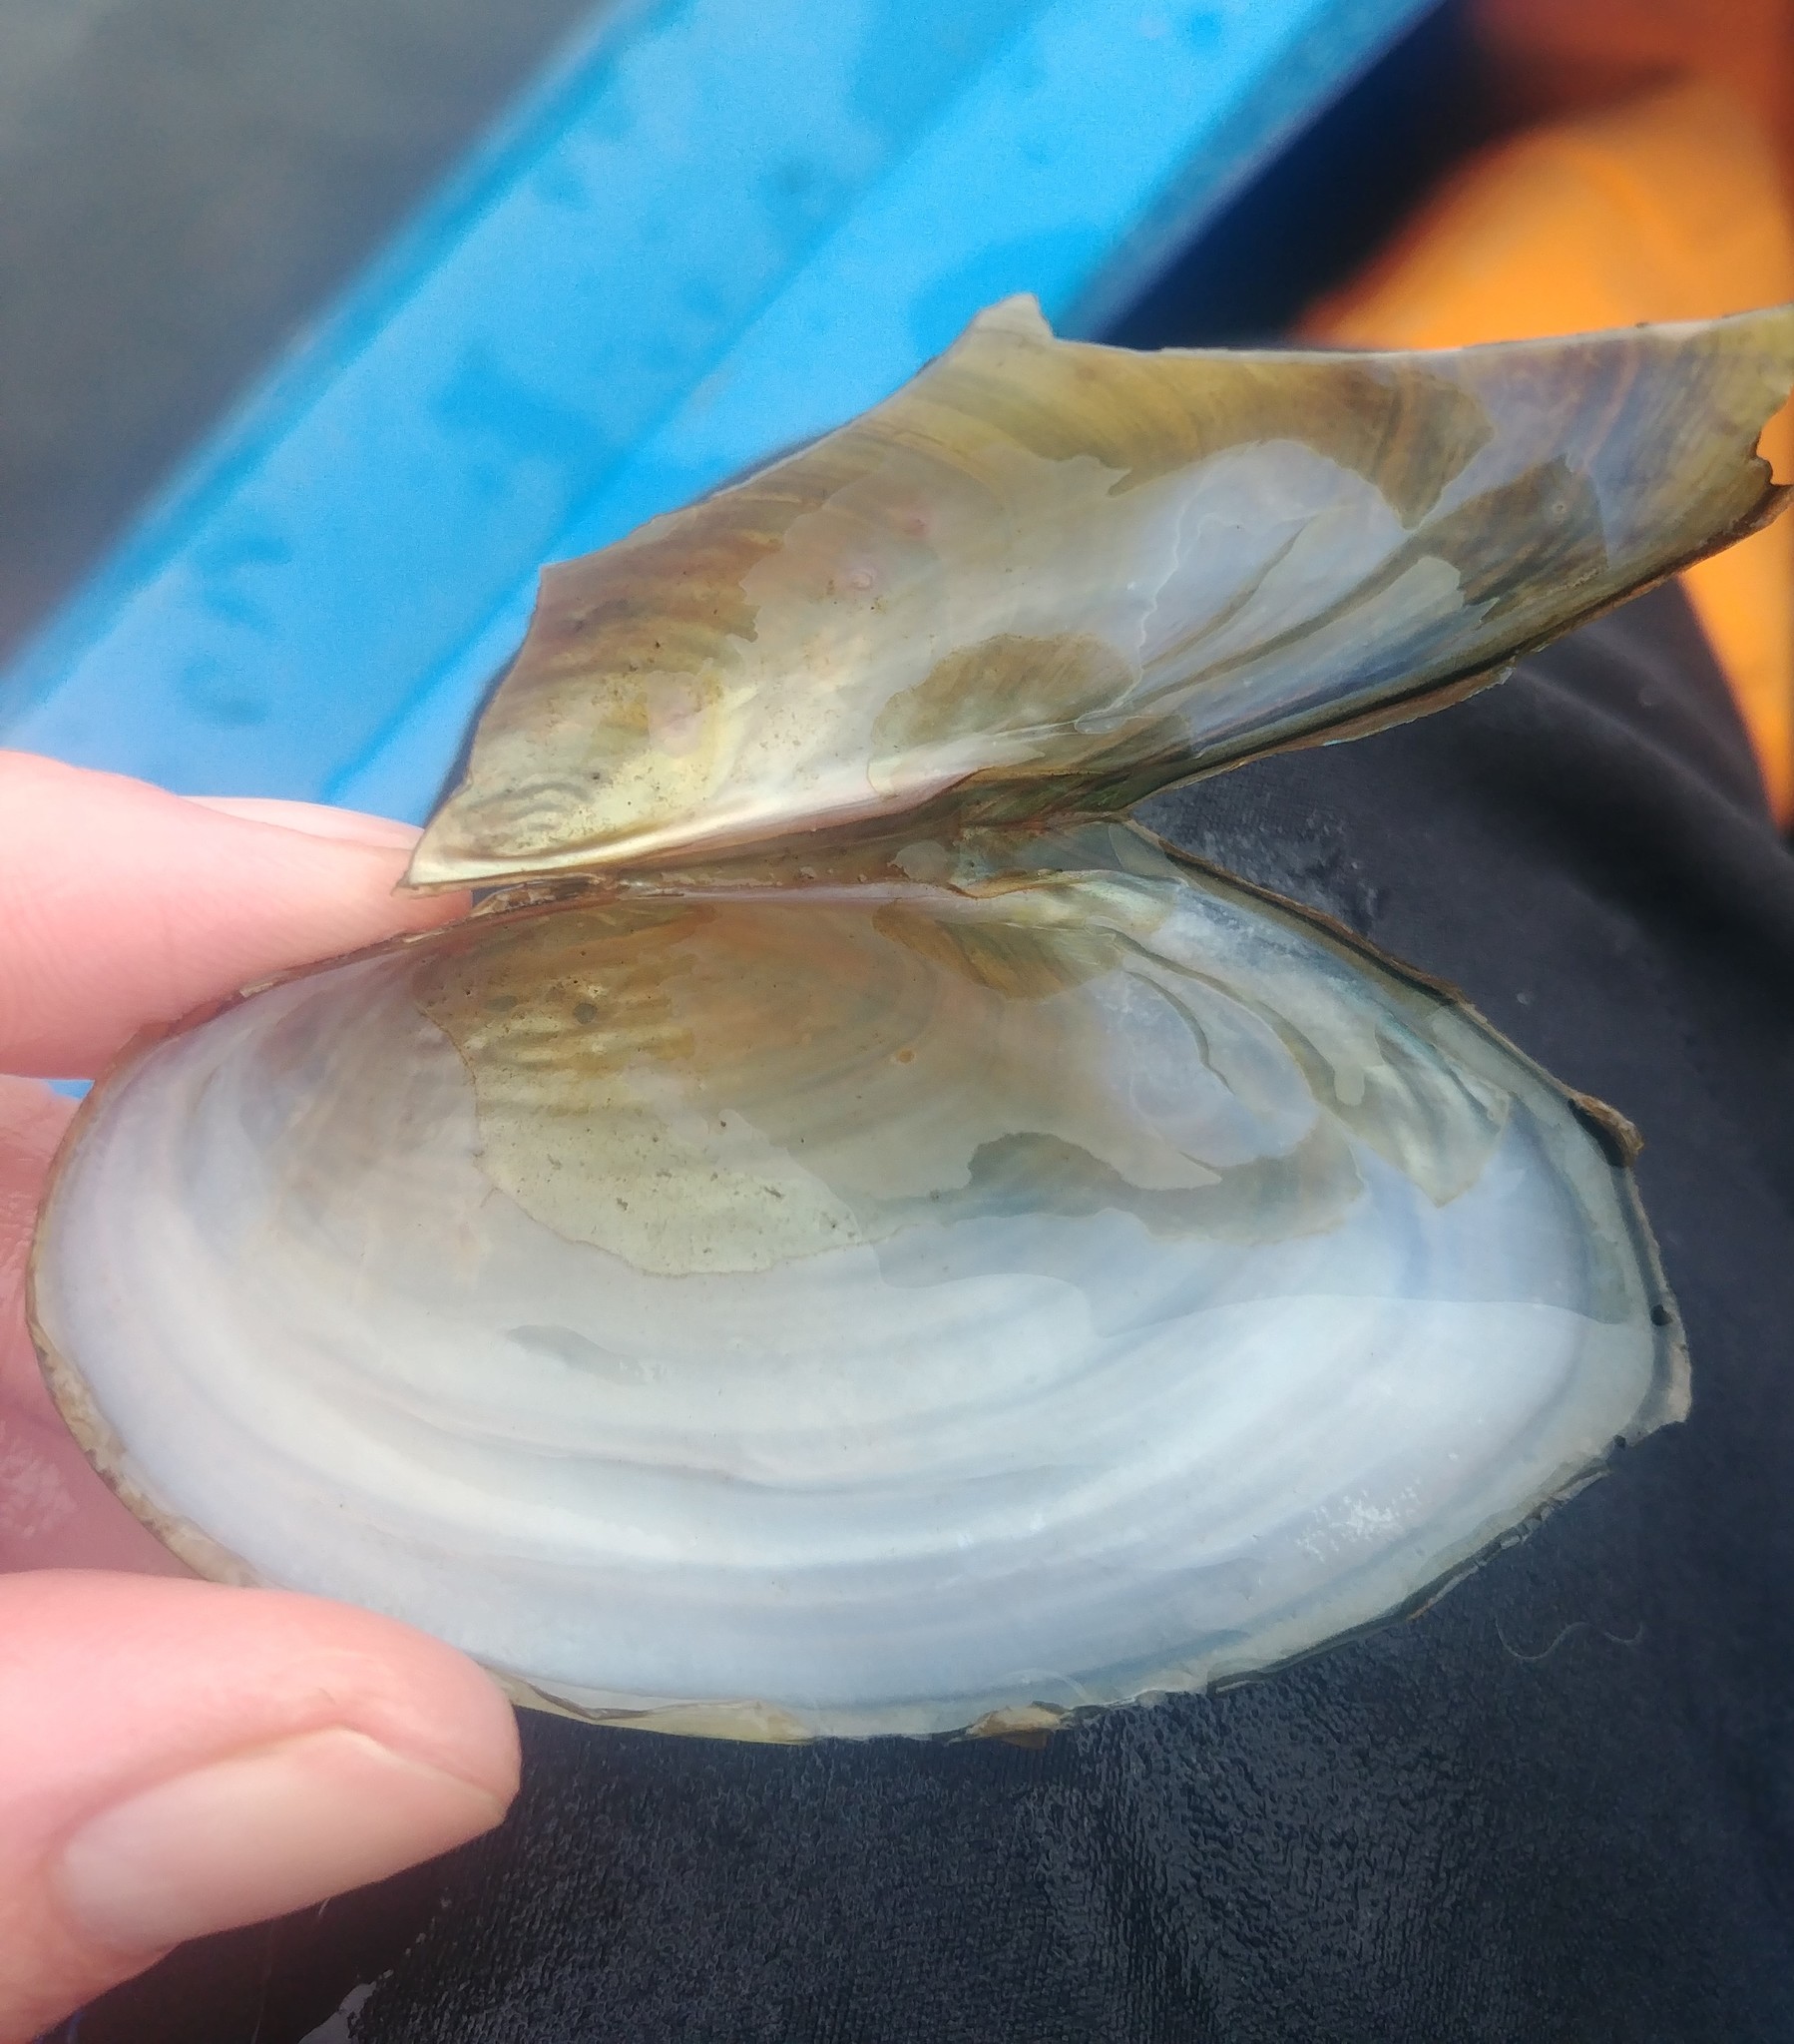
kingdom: Animalia
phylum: Mollusca
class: Bivalvia
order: Unionida
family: Unionidae
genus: Pyganodon
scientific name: Pyganodon cataracta
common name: Eastern floater
